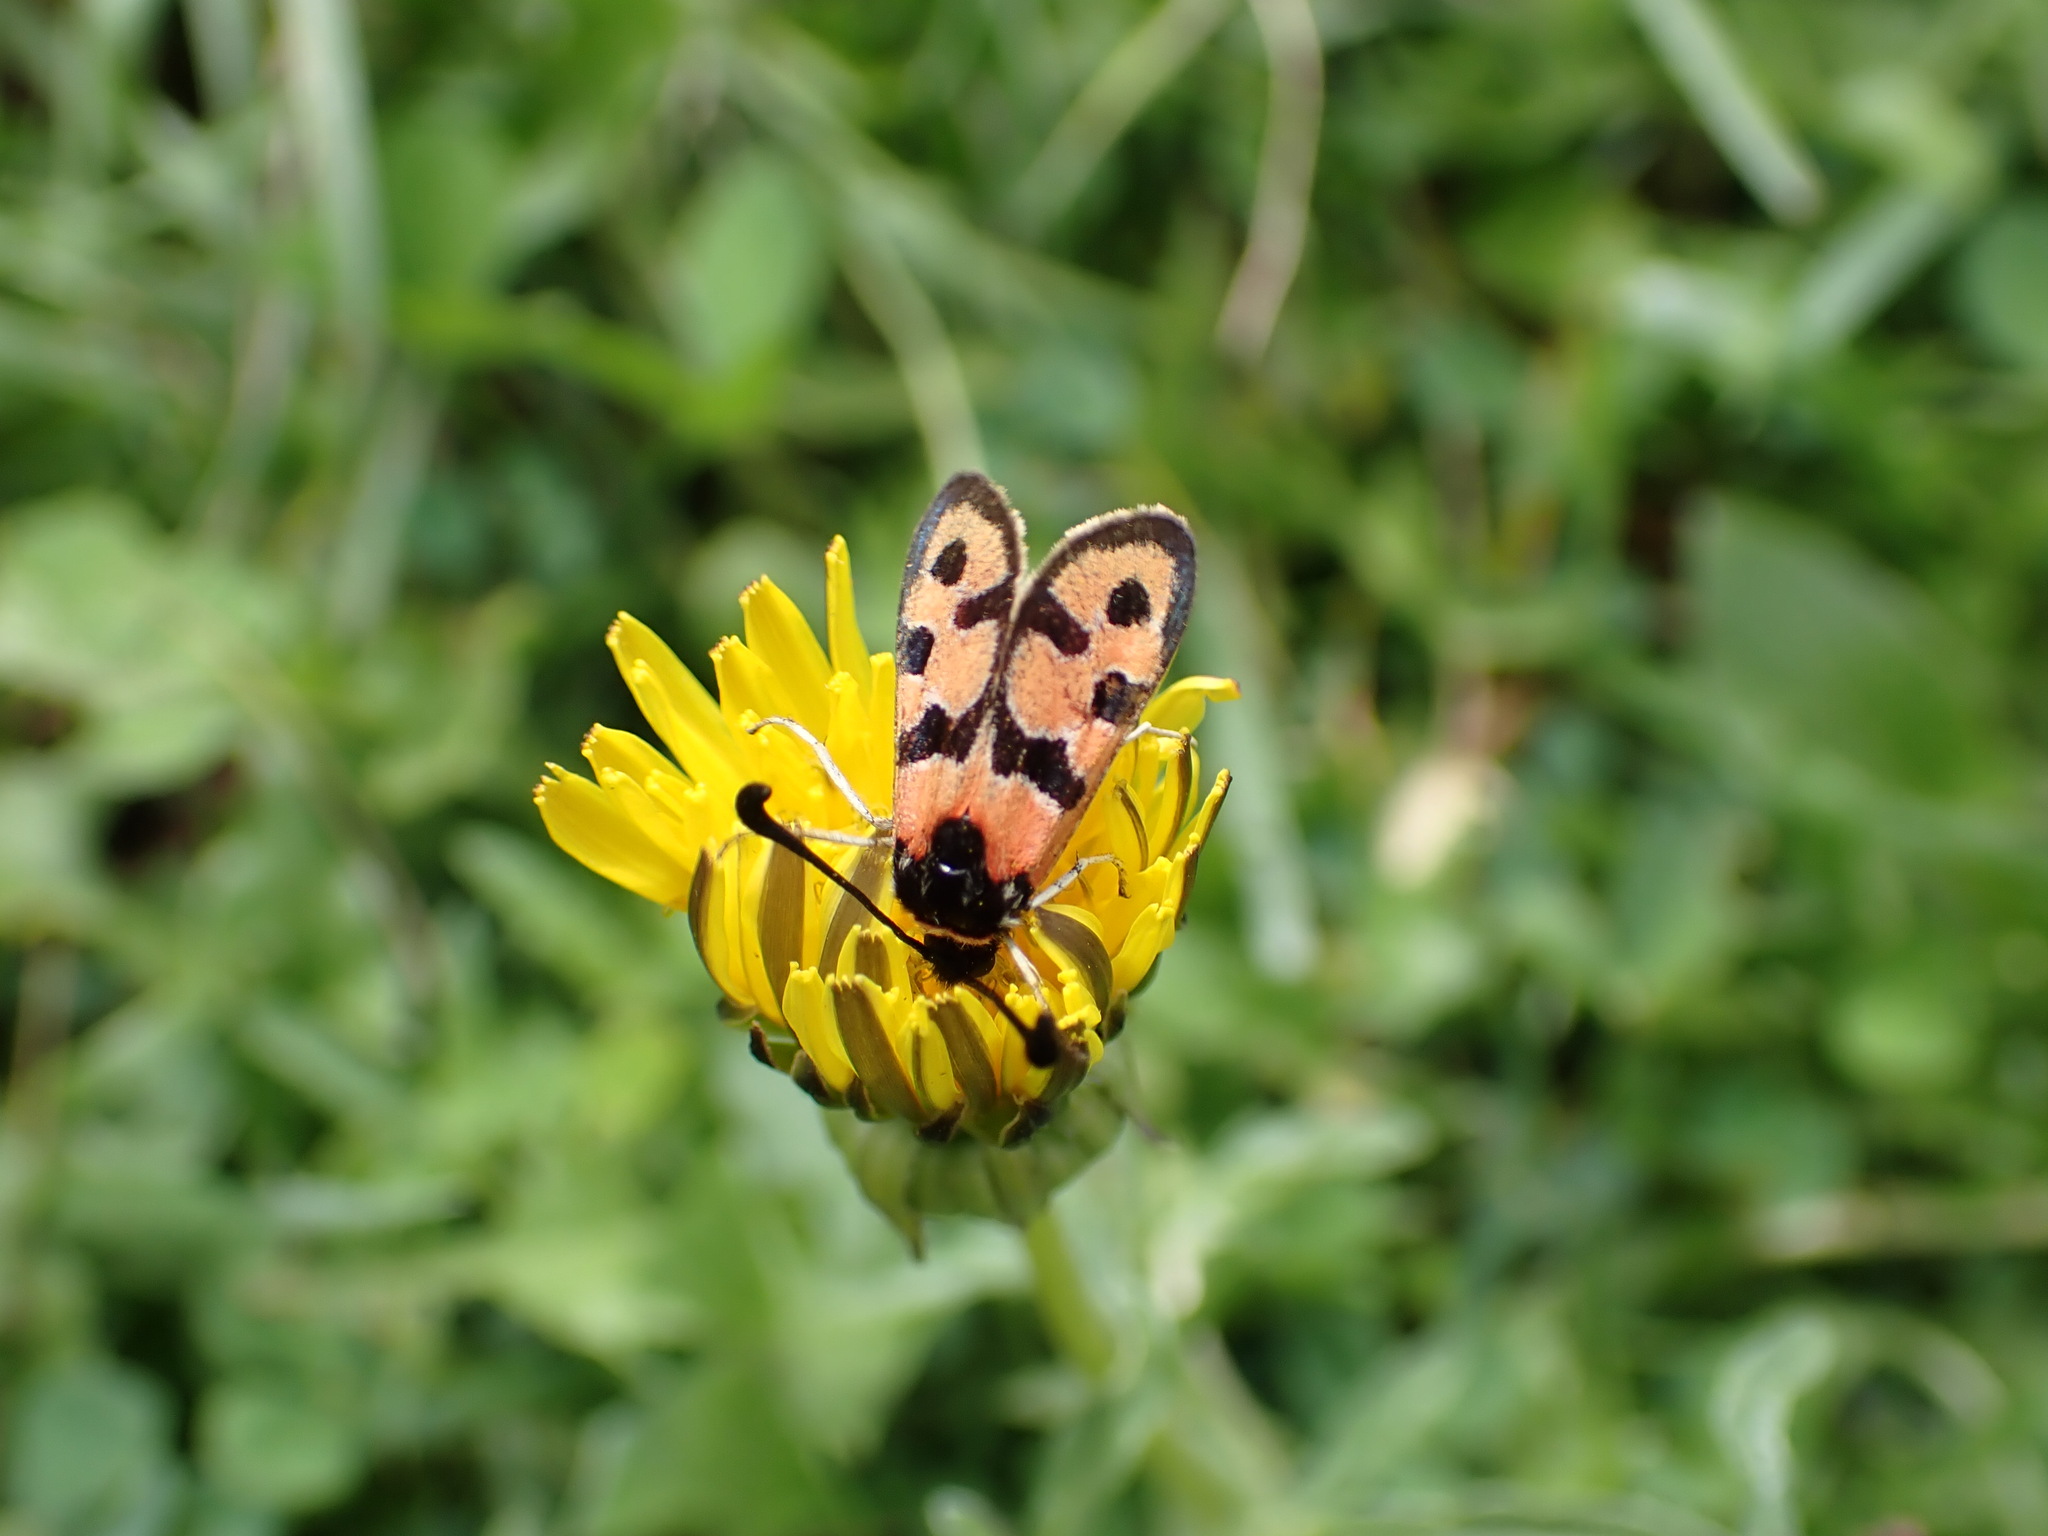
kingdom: Animalia
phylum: Arthropoda
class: Insecta
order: Lepidoptera
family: Zygaenidae
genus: Zygaena
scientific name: Zygaena fausta
